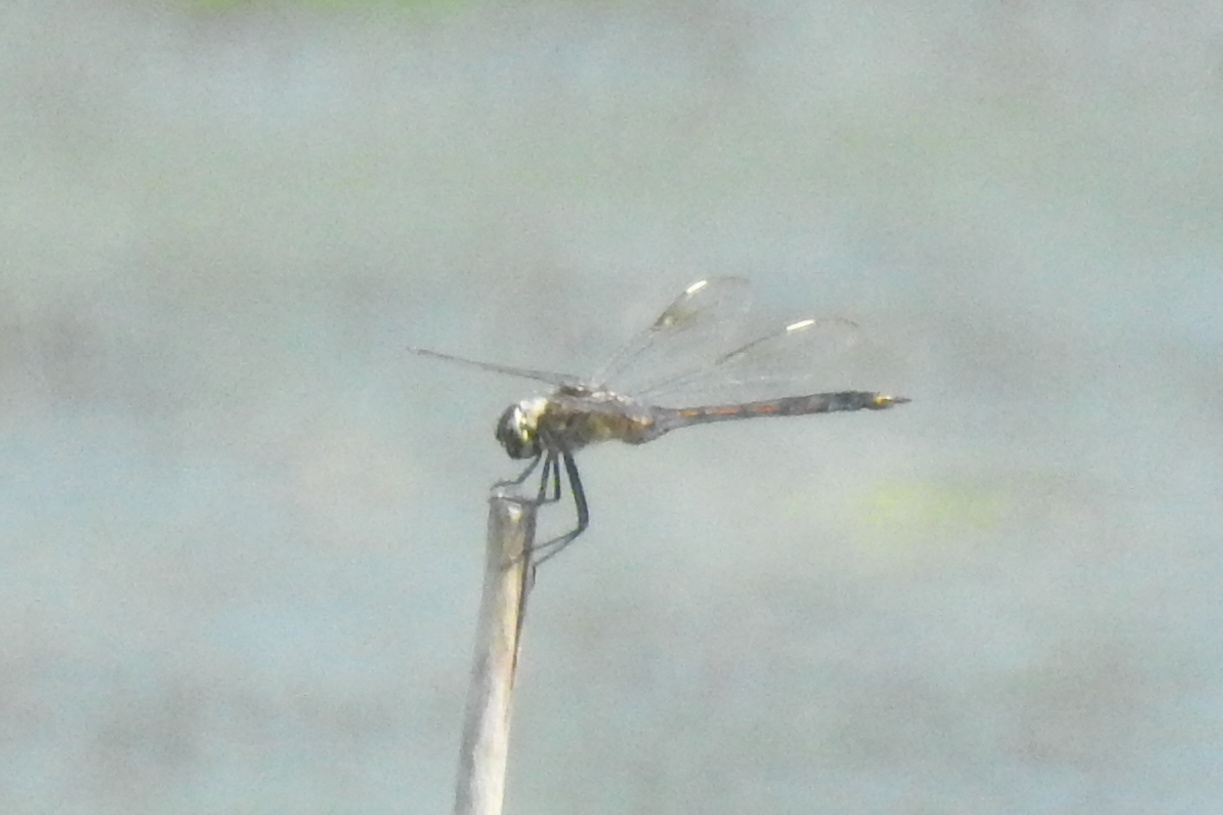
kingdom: Animalia
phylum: Arthropoda
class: Insecta
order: Odonata
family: Libellulidae
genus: Brachymesia
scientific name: Brachymesia gravida
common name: Four-spotted pennant
